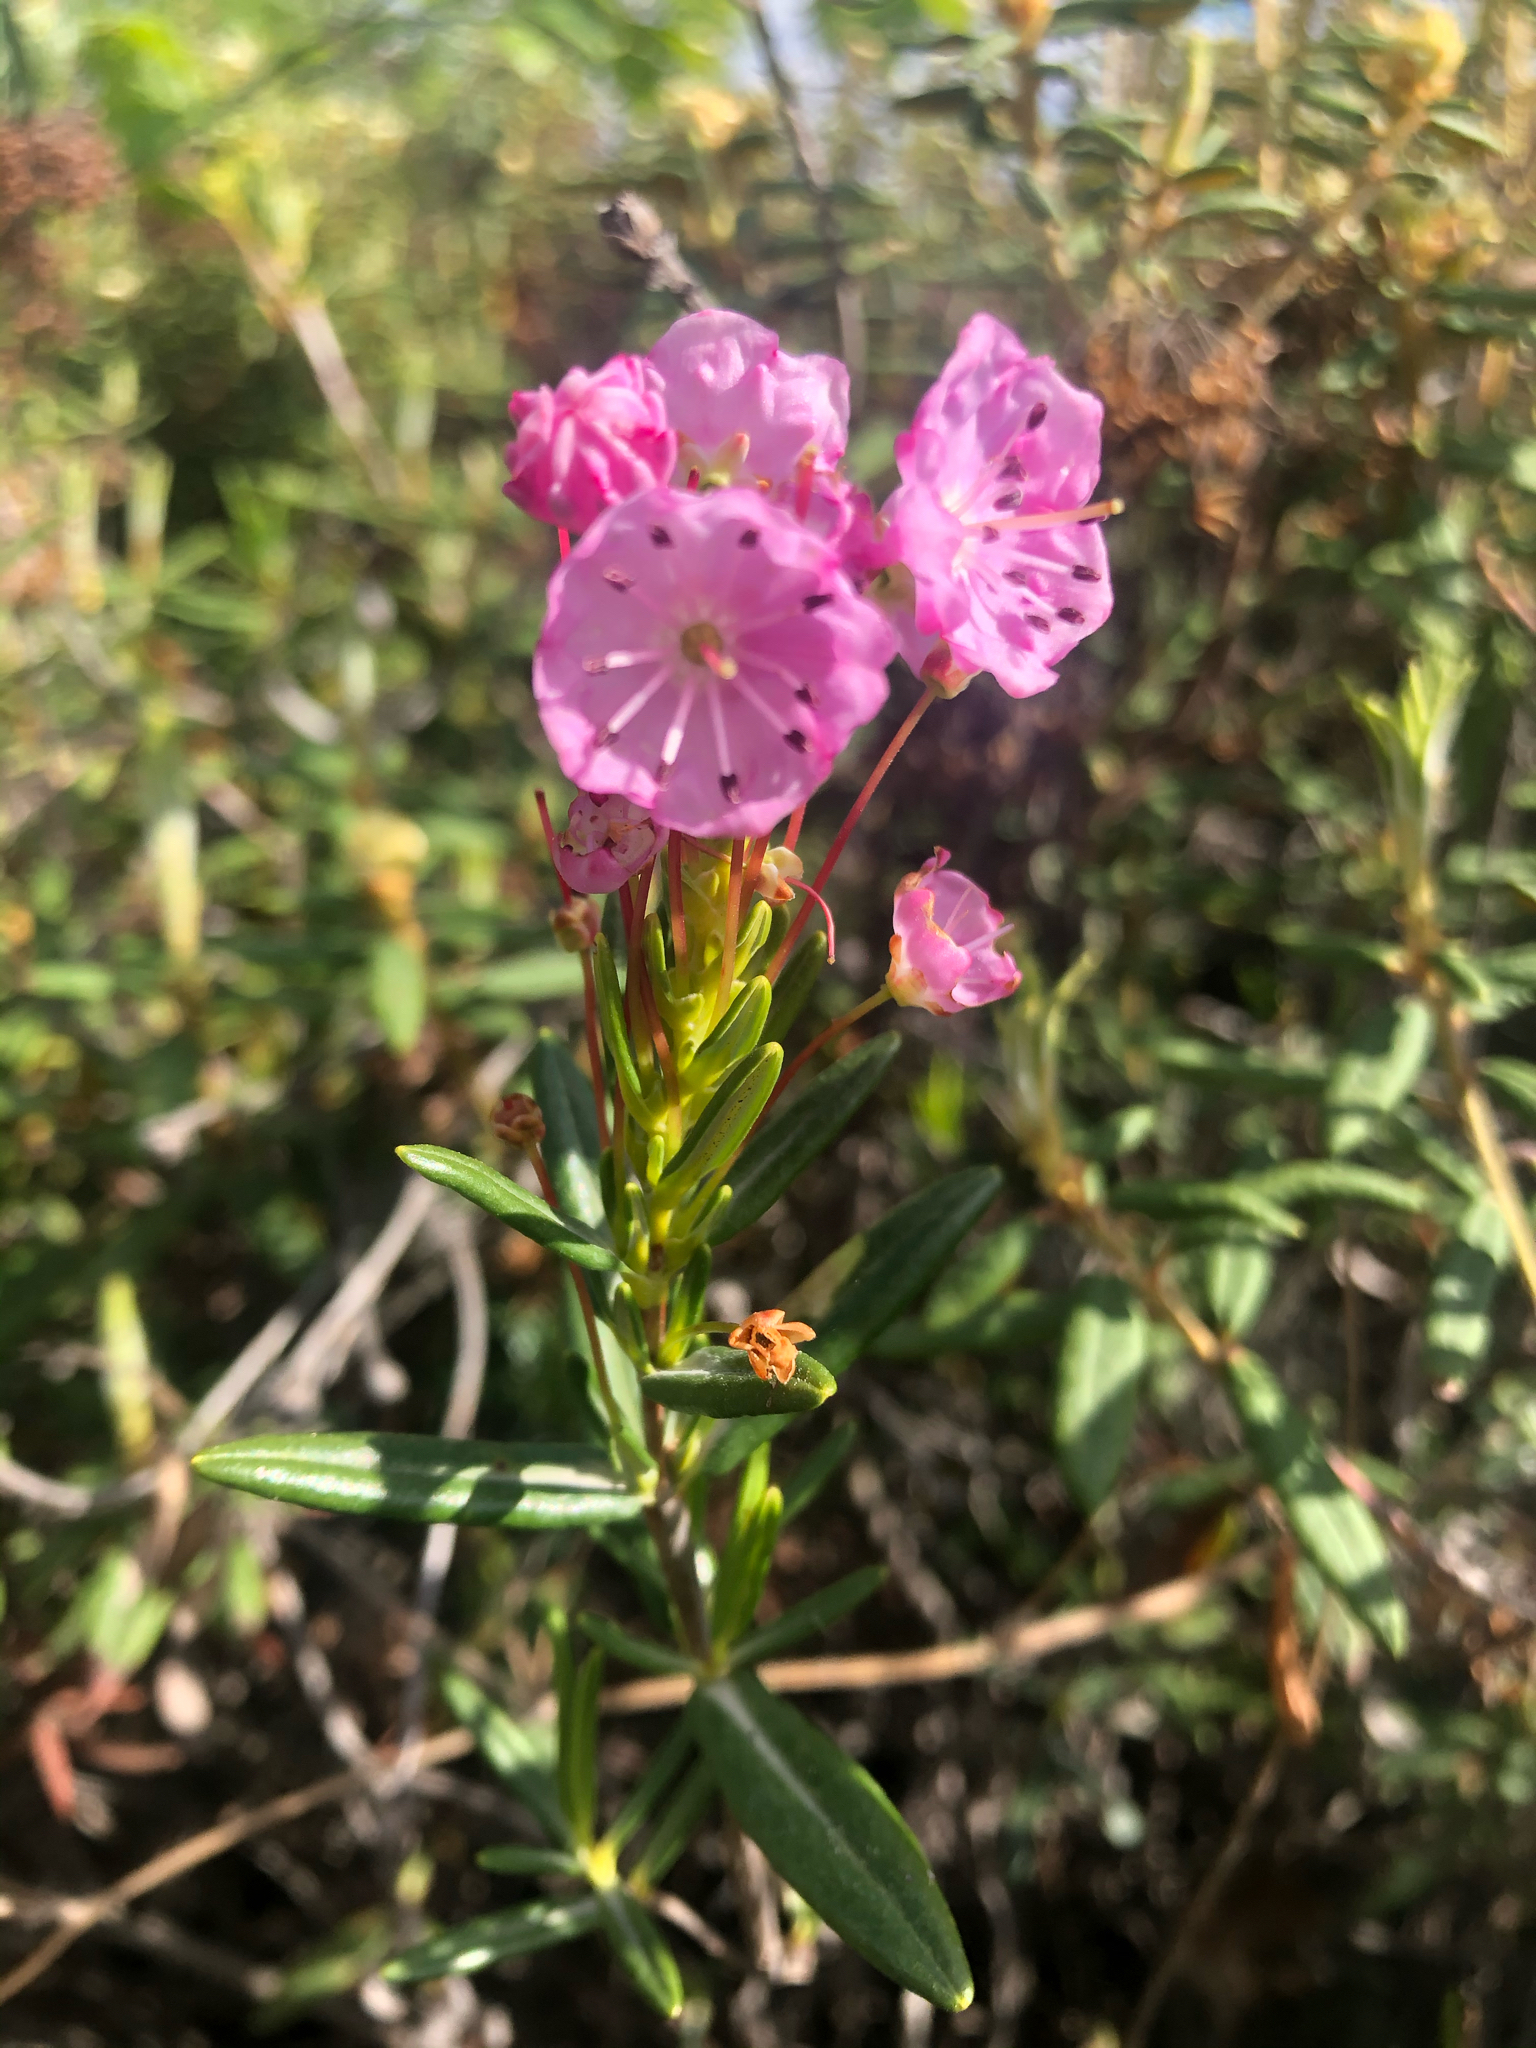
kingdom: Plantae
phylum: Tracheophyta
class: Magnoliopsida
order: Ericales
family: Ericaceae
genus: Kalmia
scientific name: Kalmia polifolia
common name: Bog-laurel
